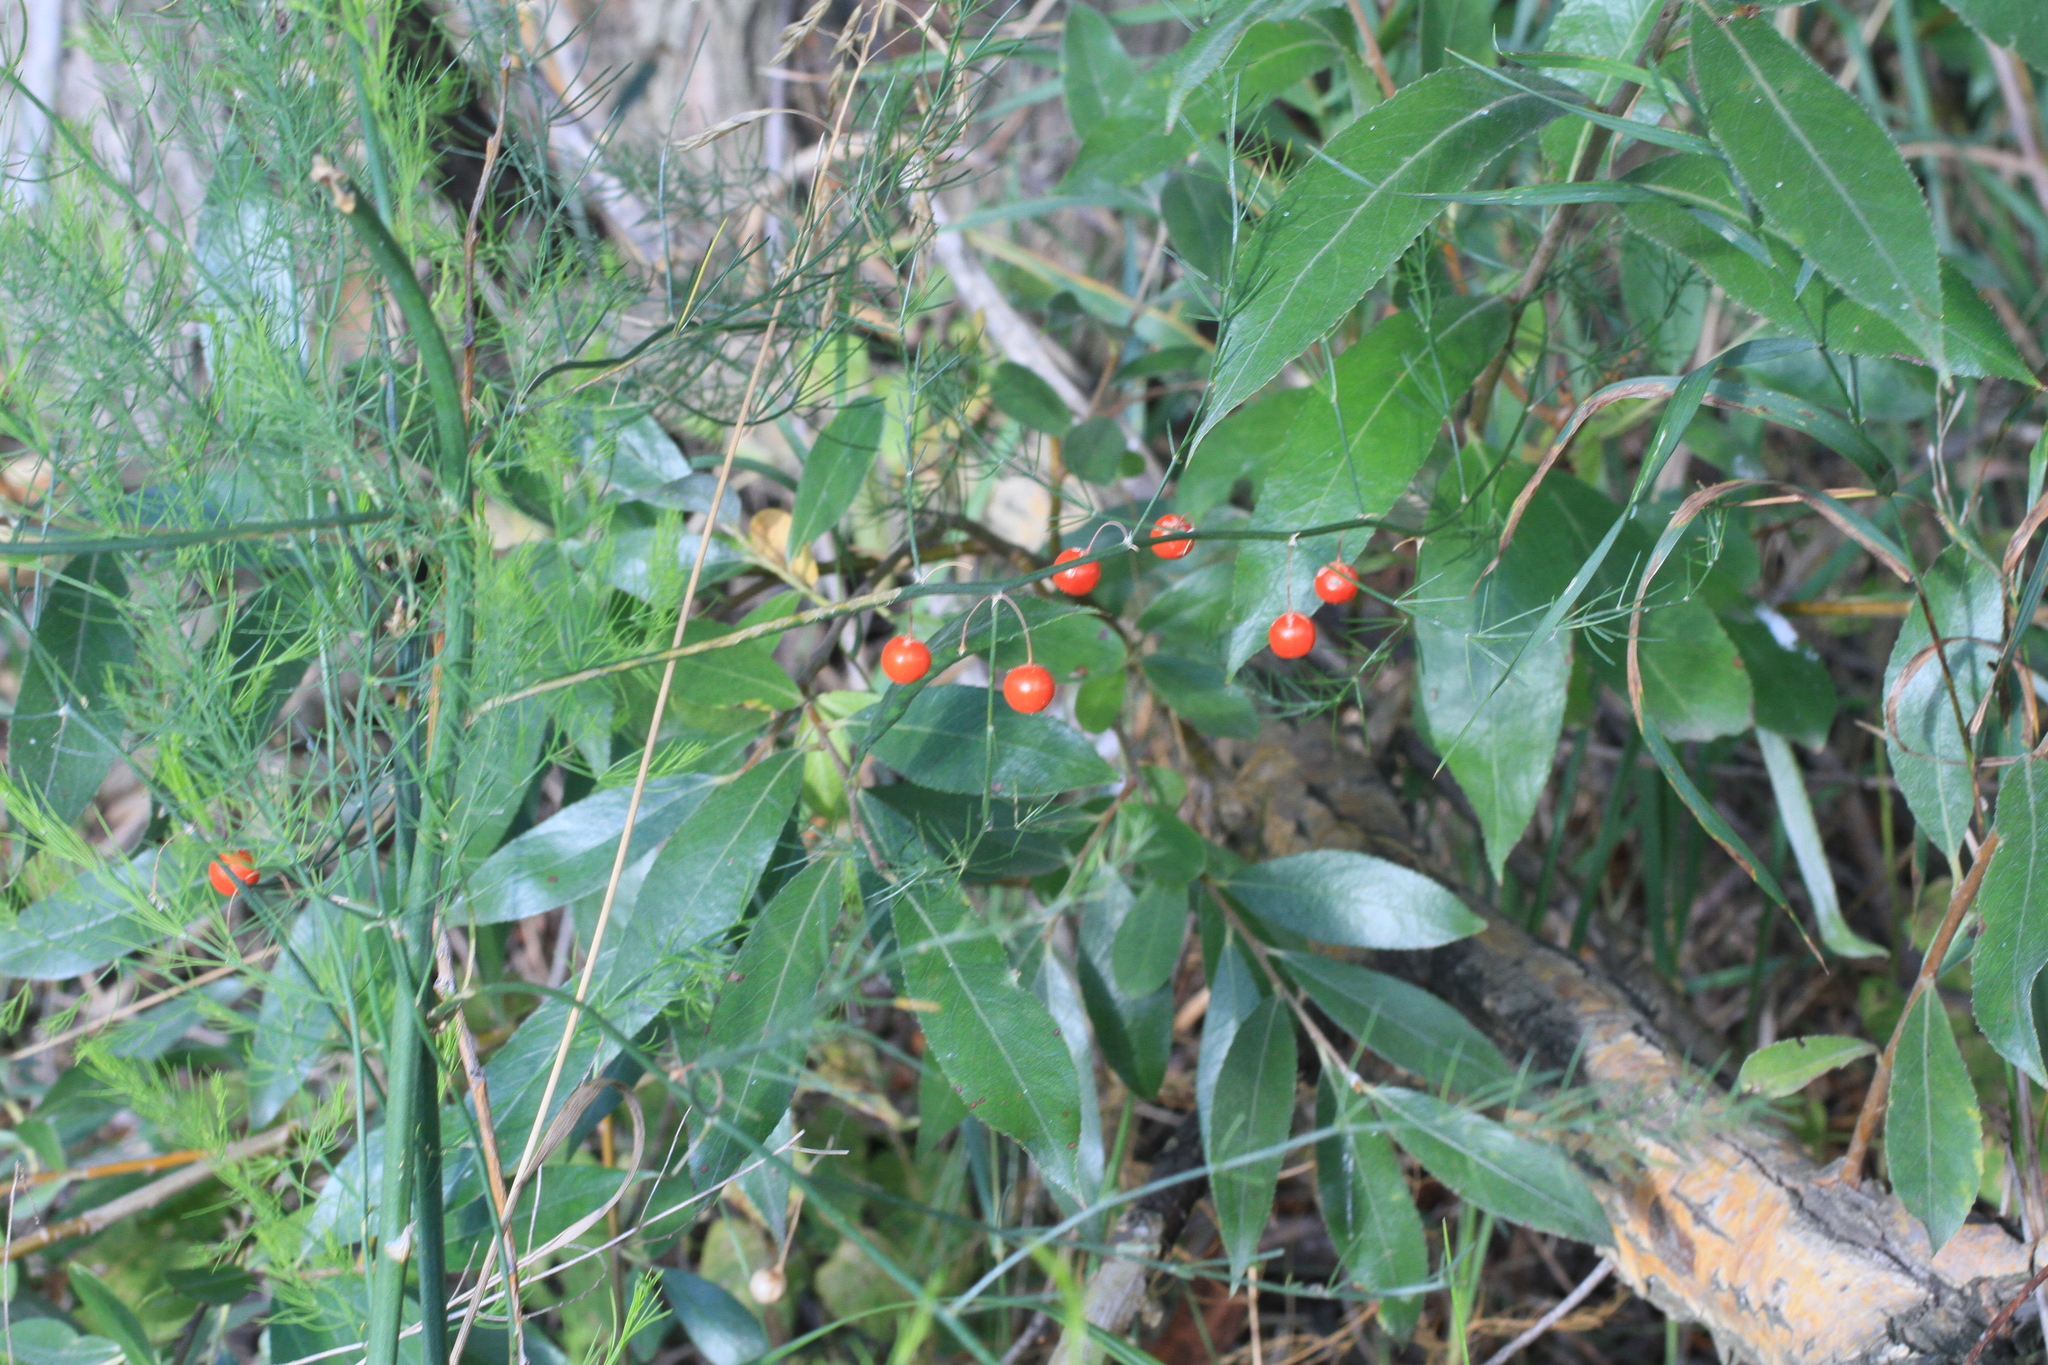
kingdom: Plantae
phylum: Tracheophyta
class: Liliopsida
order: Asparagales
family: Asparagaceae
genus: Asparagus
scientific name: Asparagus officinalis
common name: Garden asparagus
